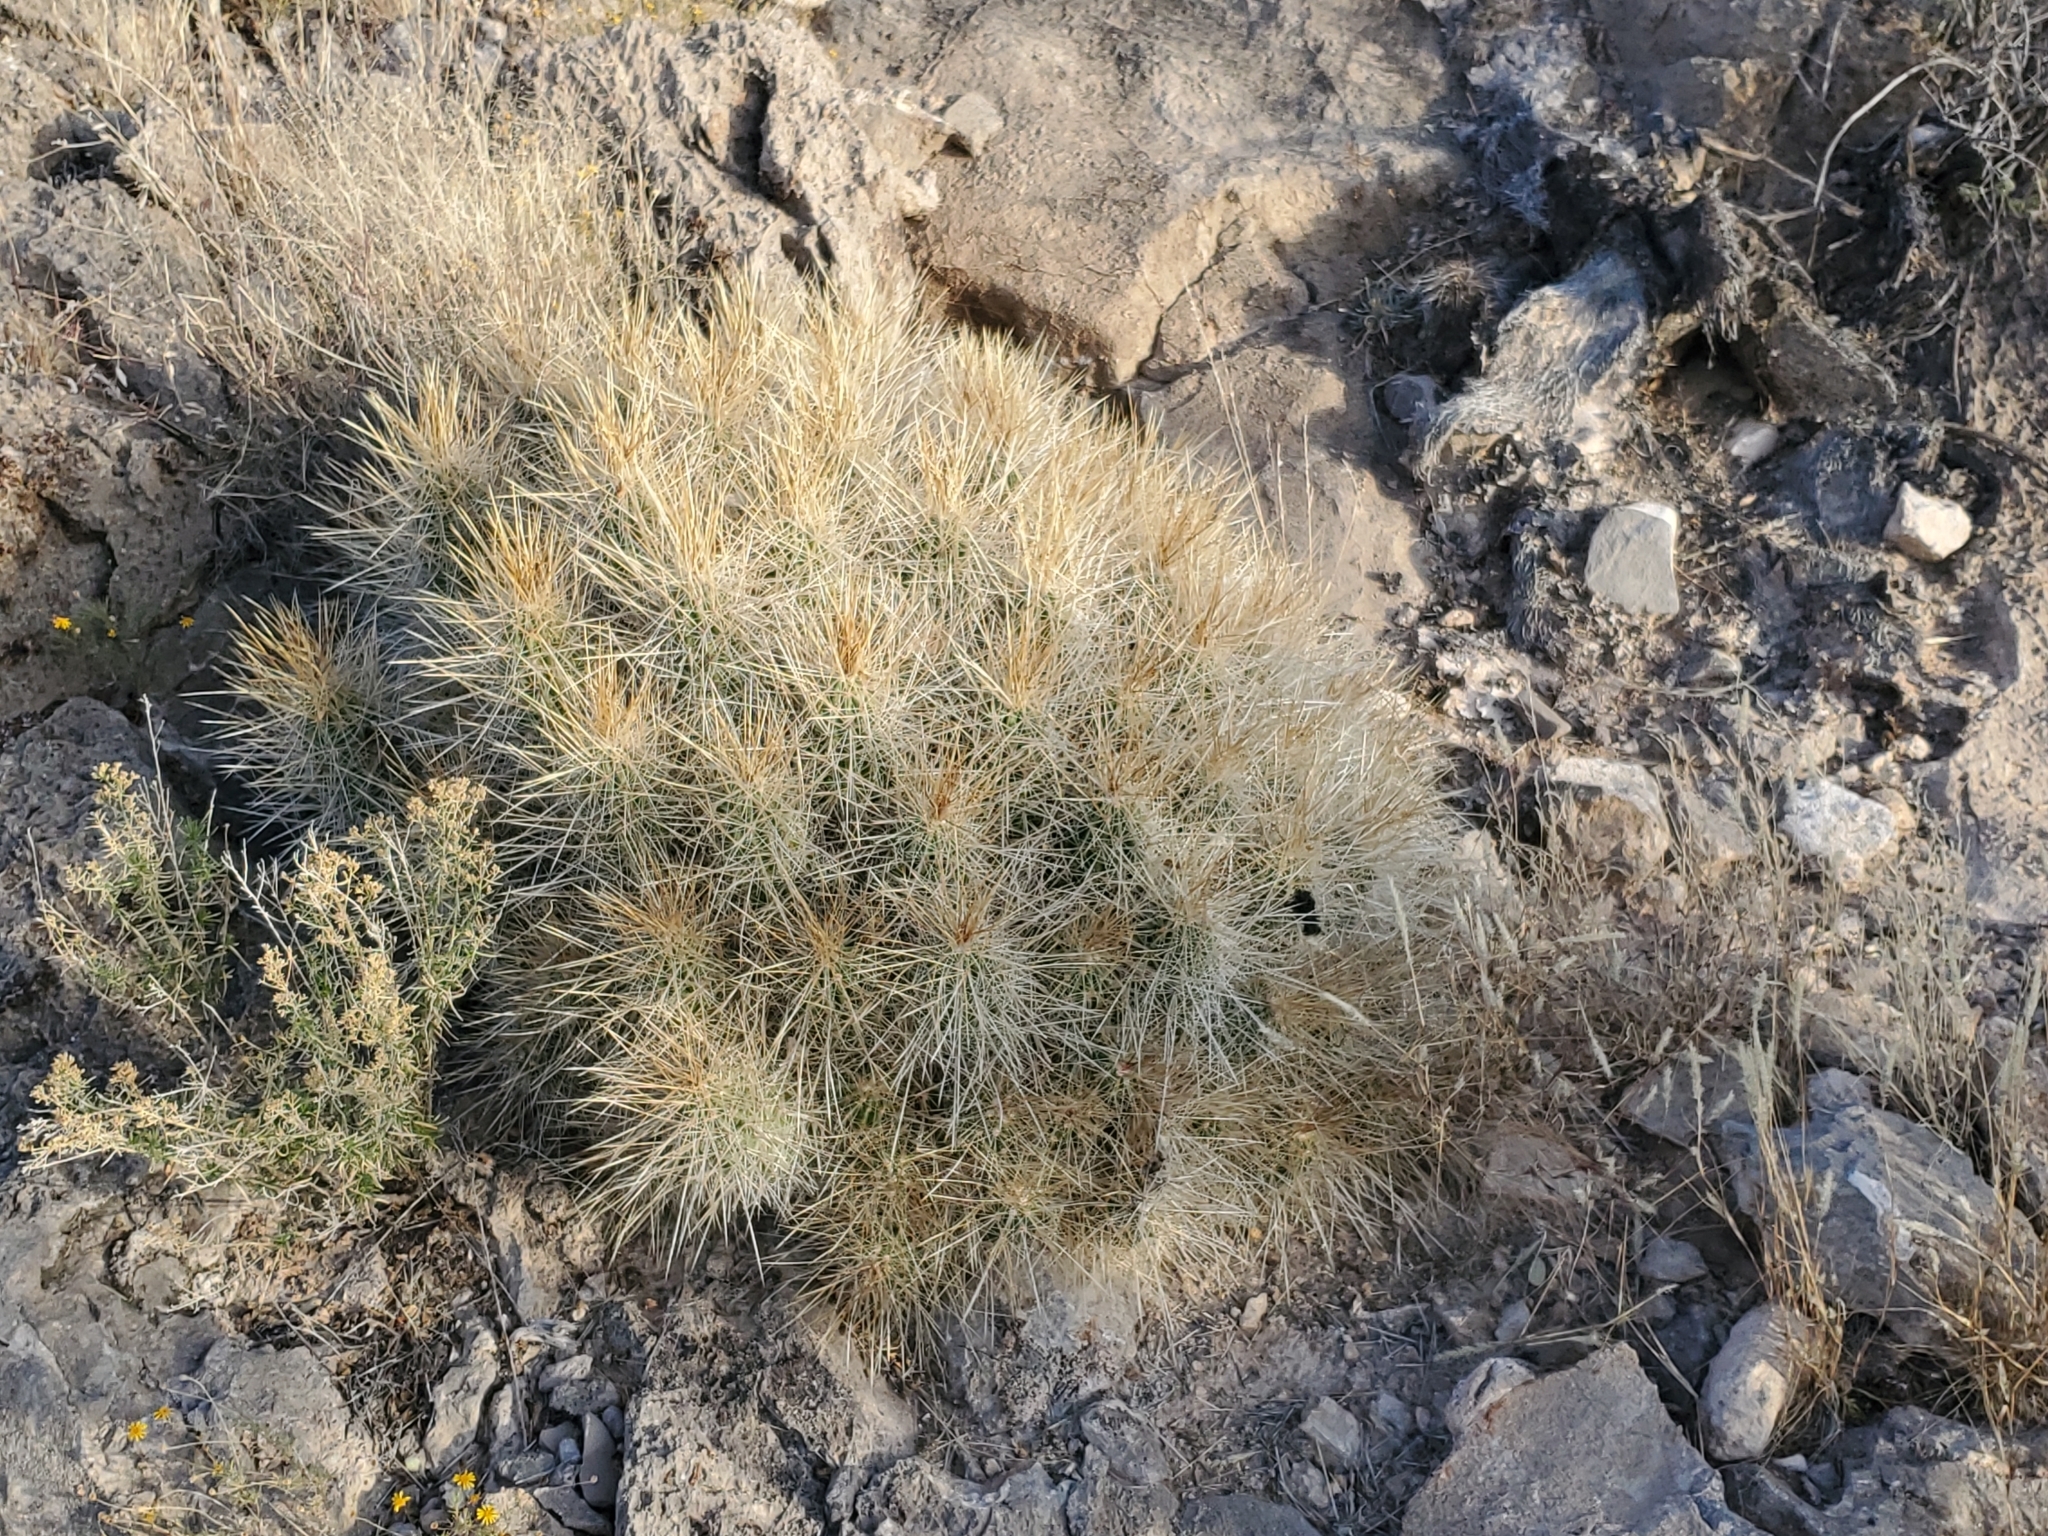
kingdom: Plantae
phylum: Tracheophyta
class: Magnoliopsida
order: Caryophyllales
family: Cactaceae
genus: Echinocereus
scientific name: Echinocereus stramineus
